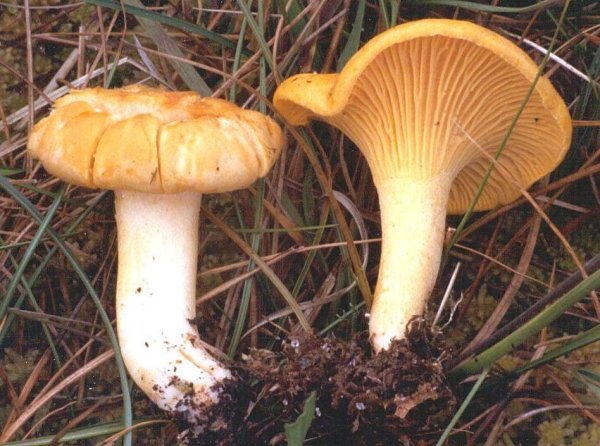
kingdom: Fungi
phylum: Basidiomycota
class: Agaricomycetes
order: Cantharellales
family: Hydnaceae
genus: Cantharellus
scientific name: Cantharellus cibarius
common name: Chanterelle
